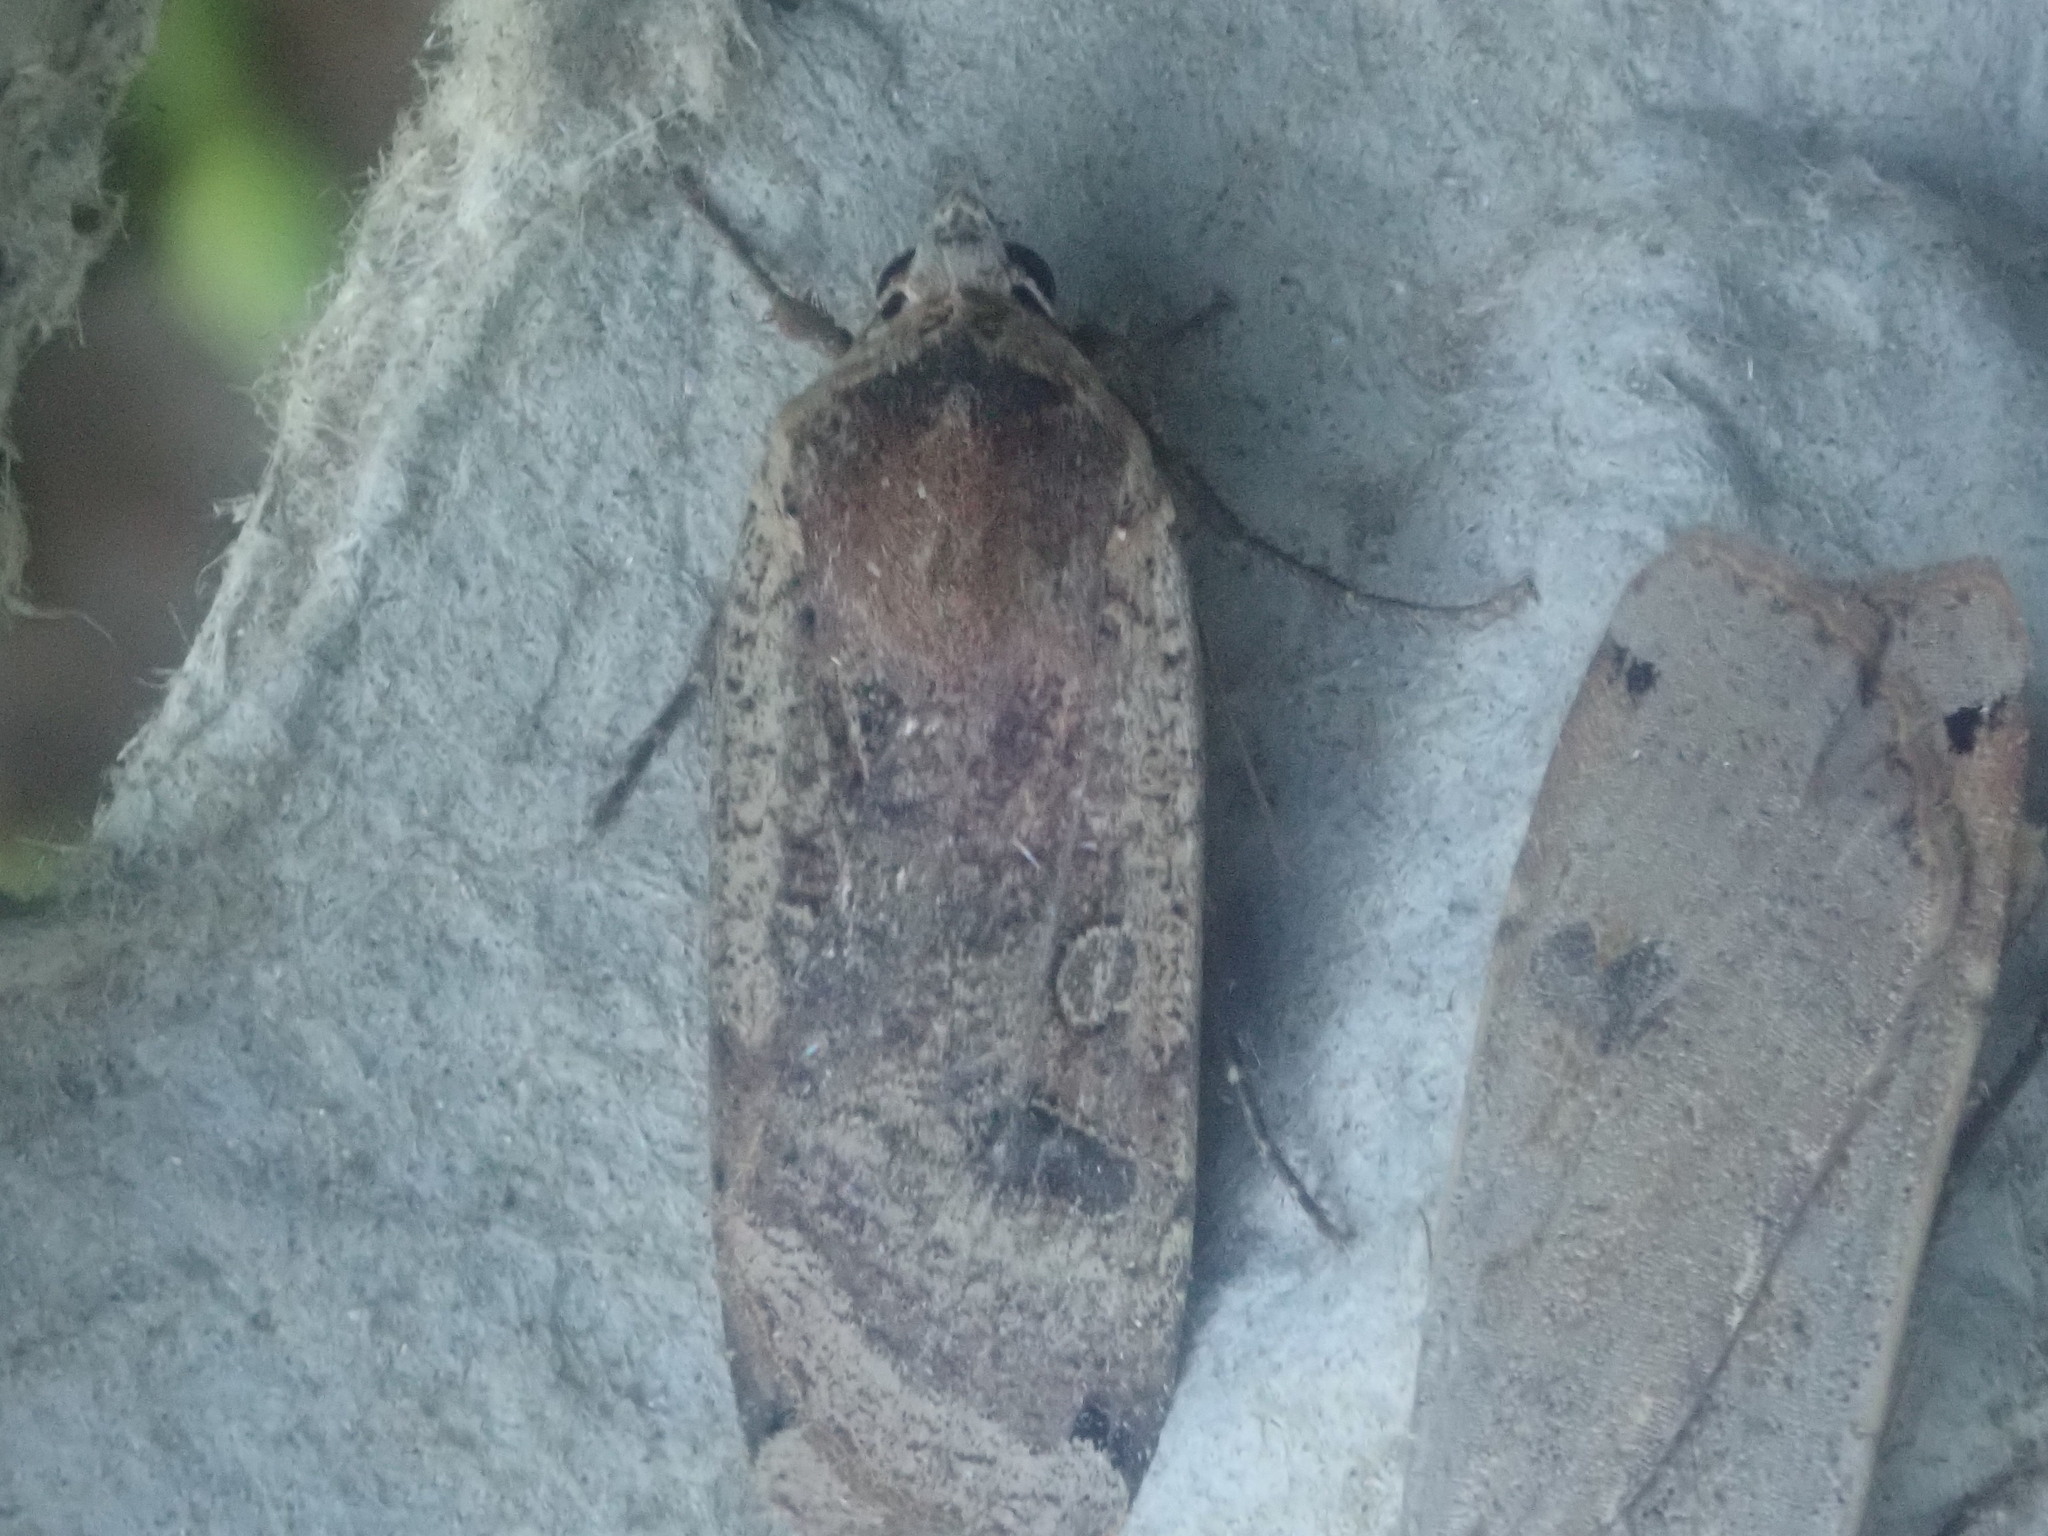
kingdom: Animalia
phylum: Arthropoda
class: Insecta
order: Lepidoptera
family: Noctuidae
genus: Noctua
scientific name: Noctua pronuba
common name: Large yellow underwing
